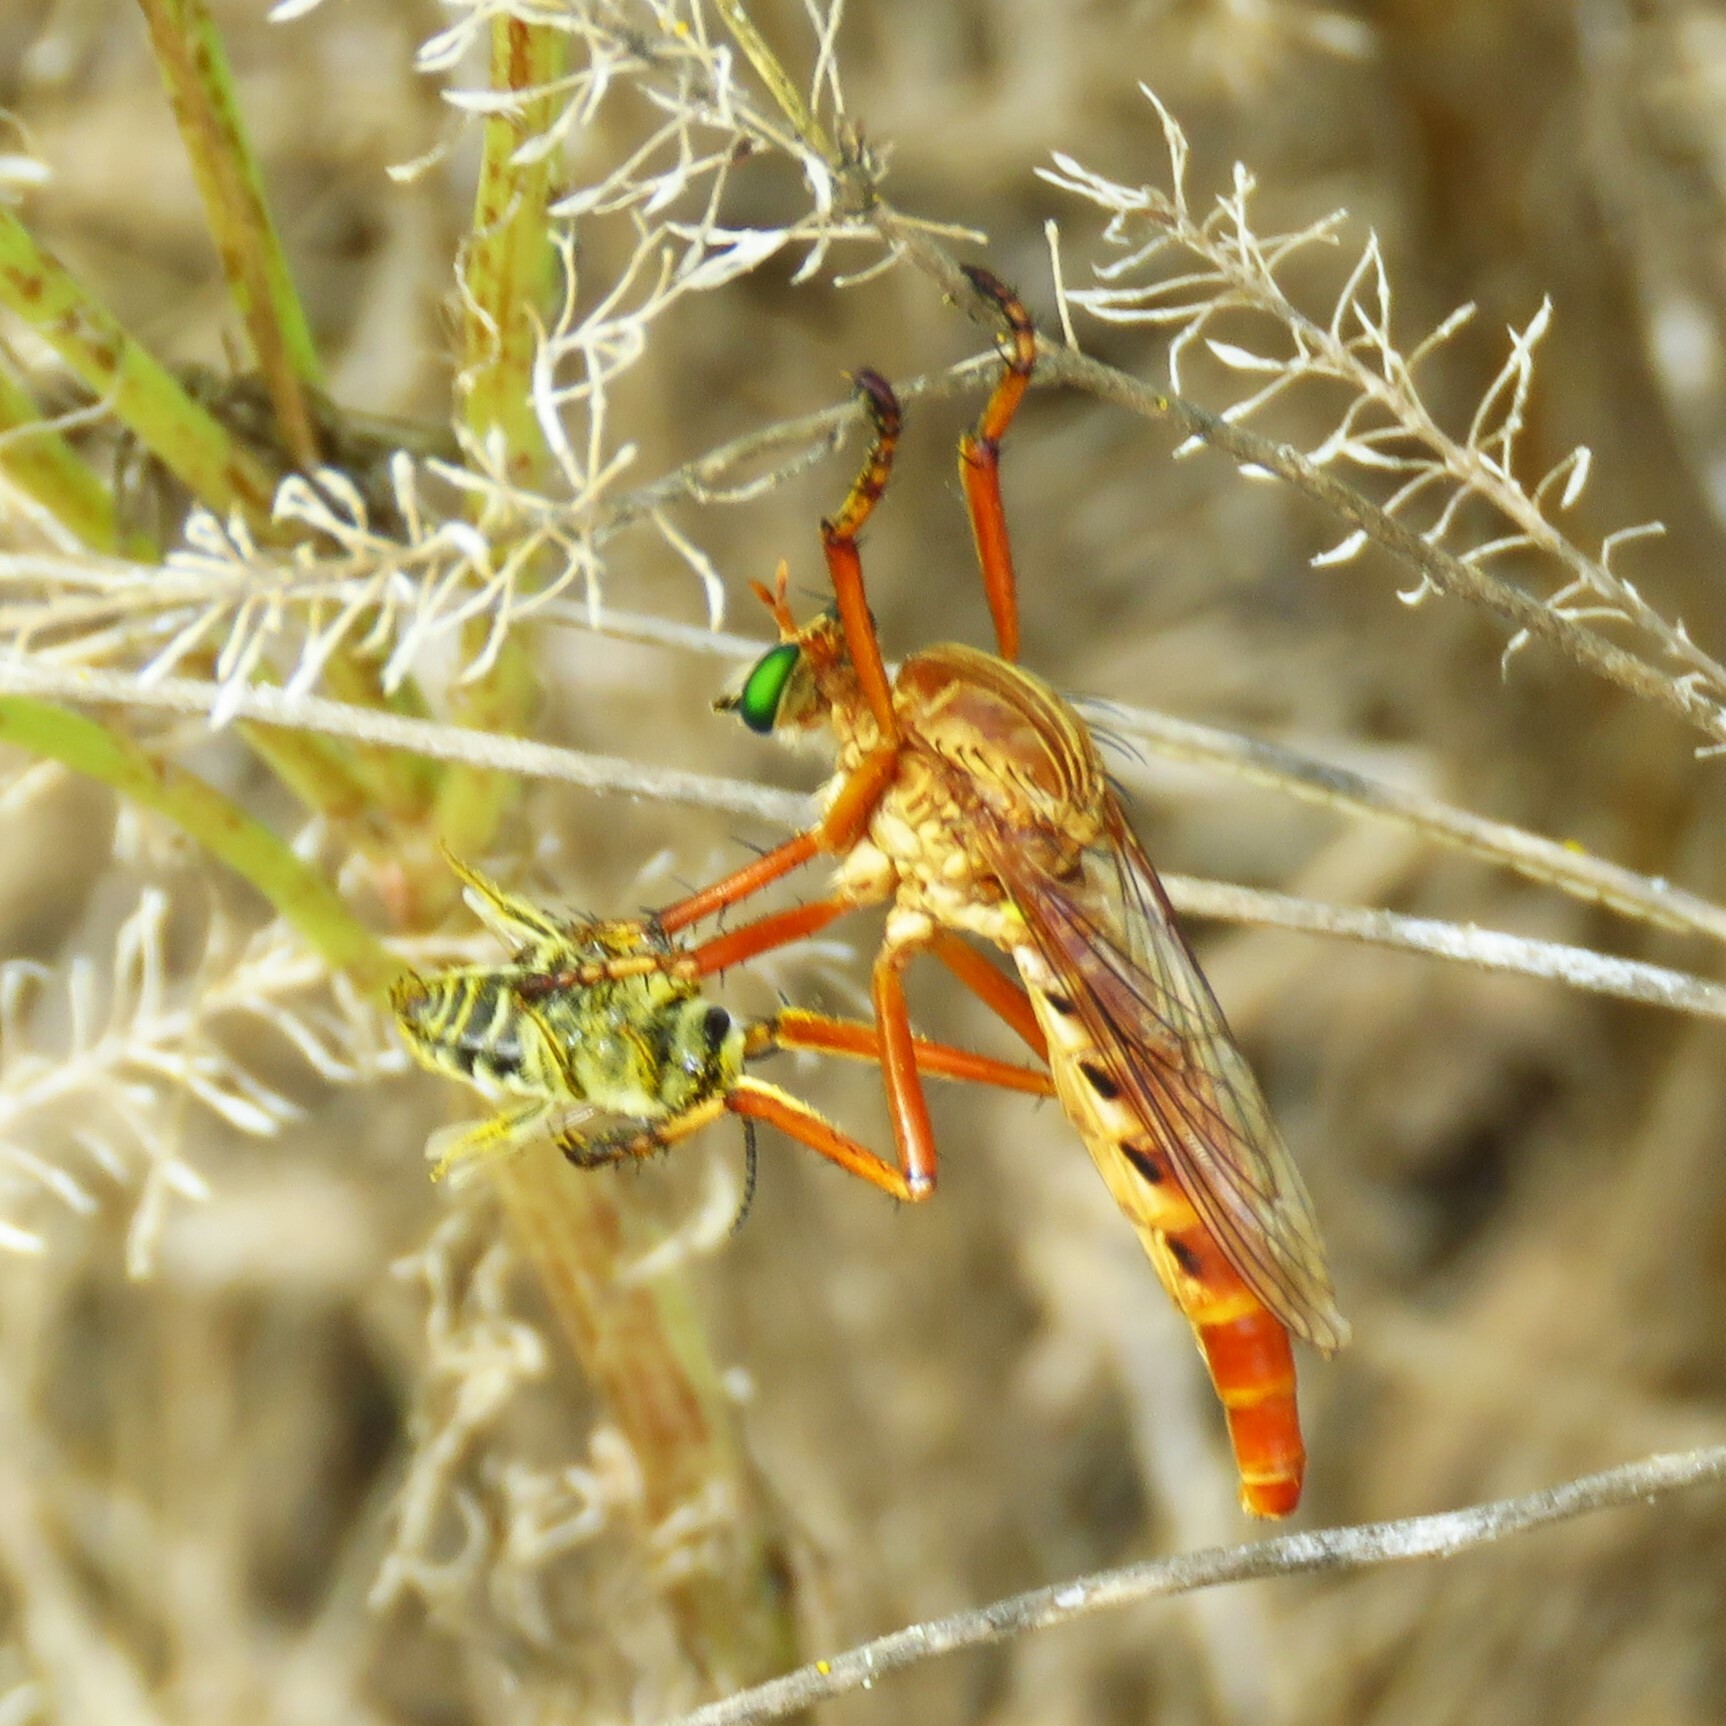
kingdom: Animalia
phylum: Arthropoda
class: Insecta
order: Diptera
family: Asilidae
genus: Diogmites
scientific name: Diogmites angustipennis
